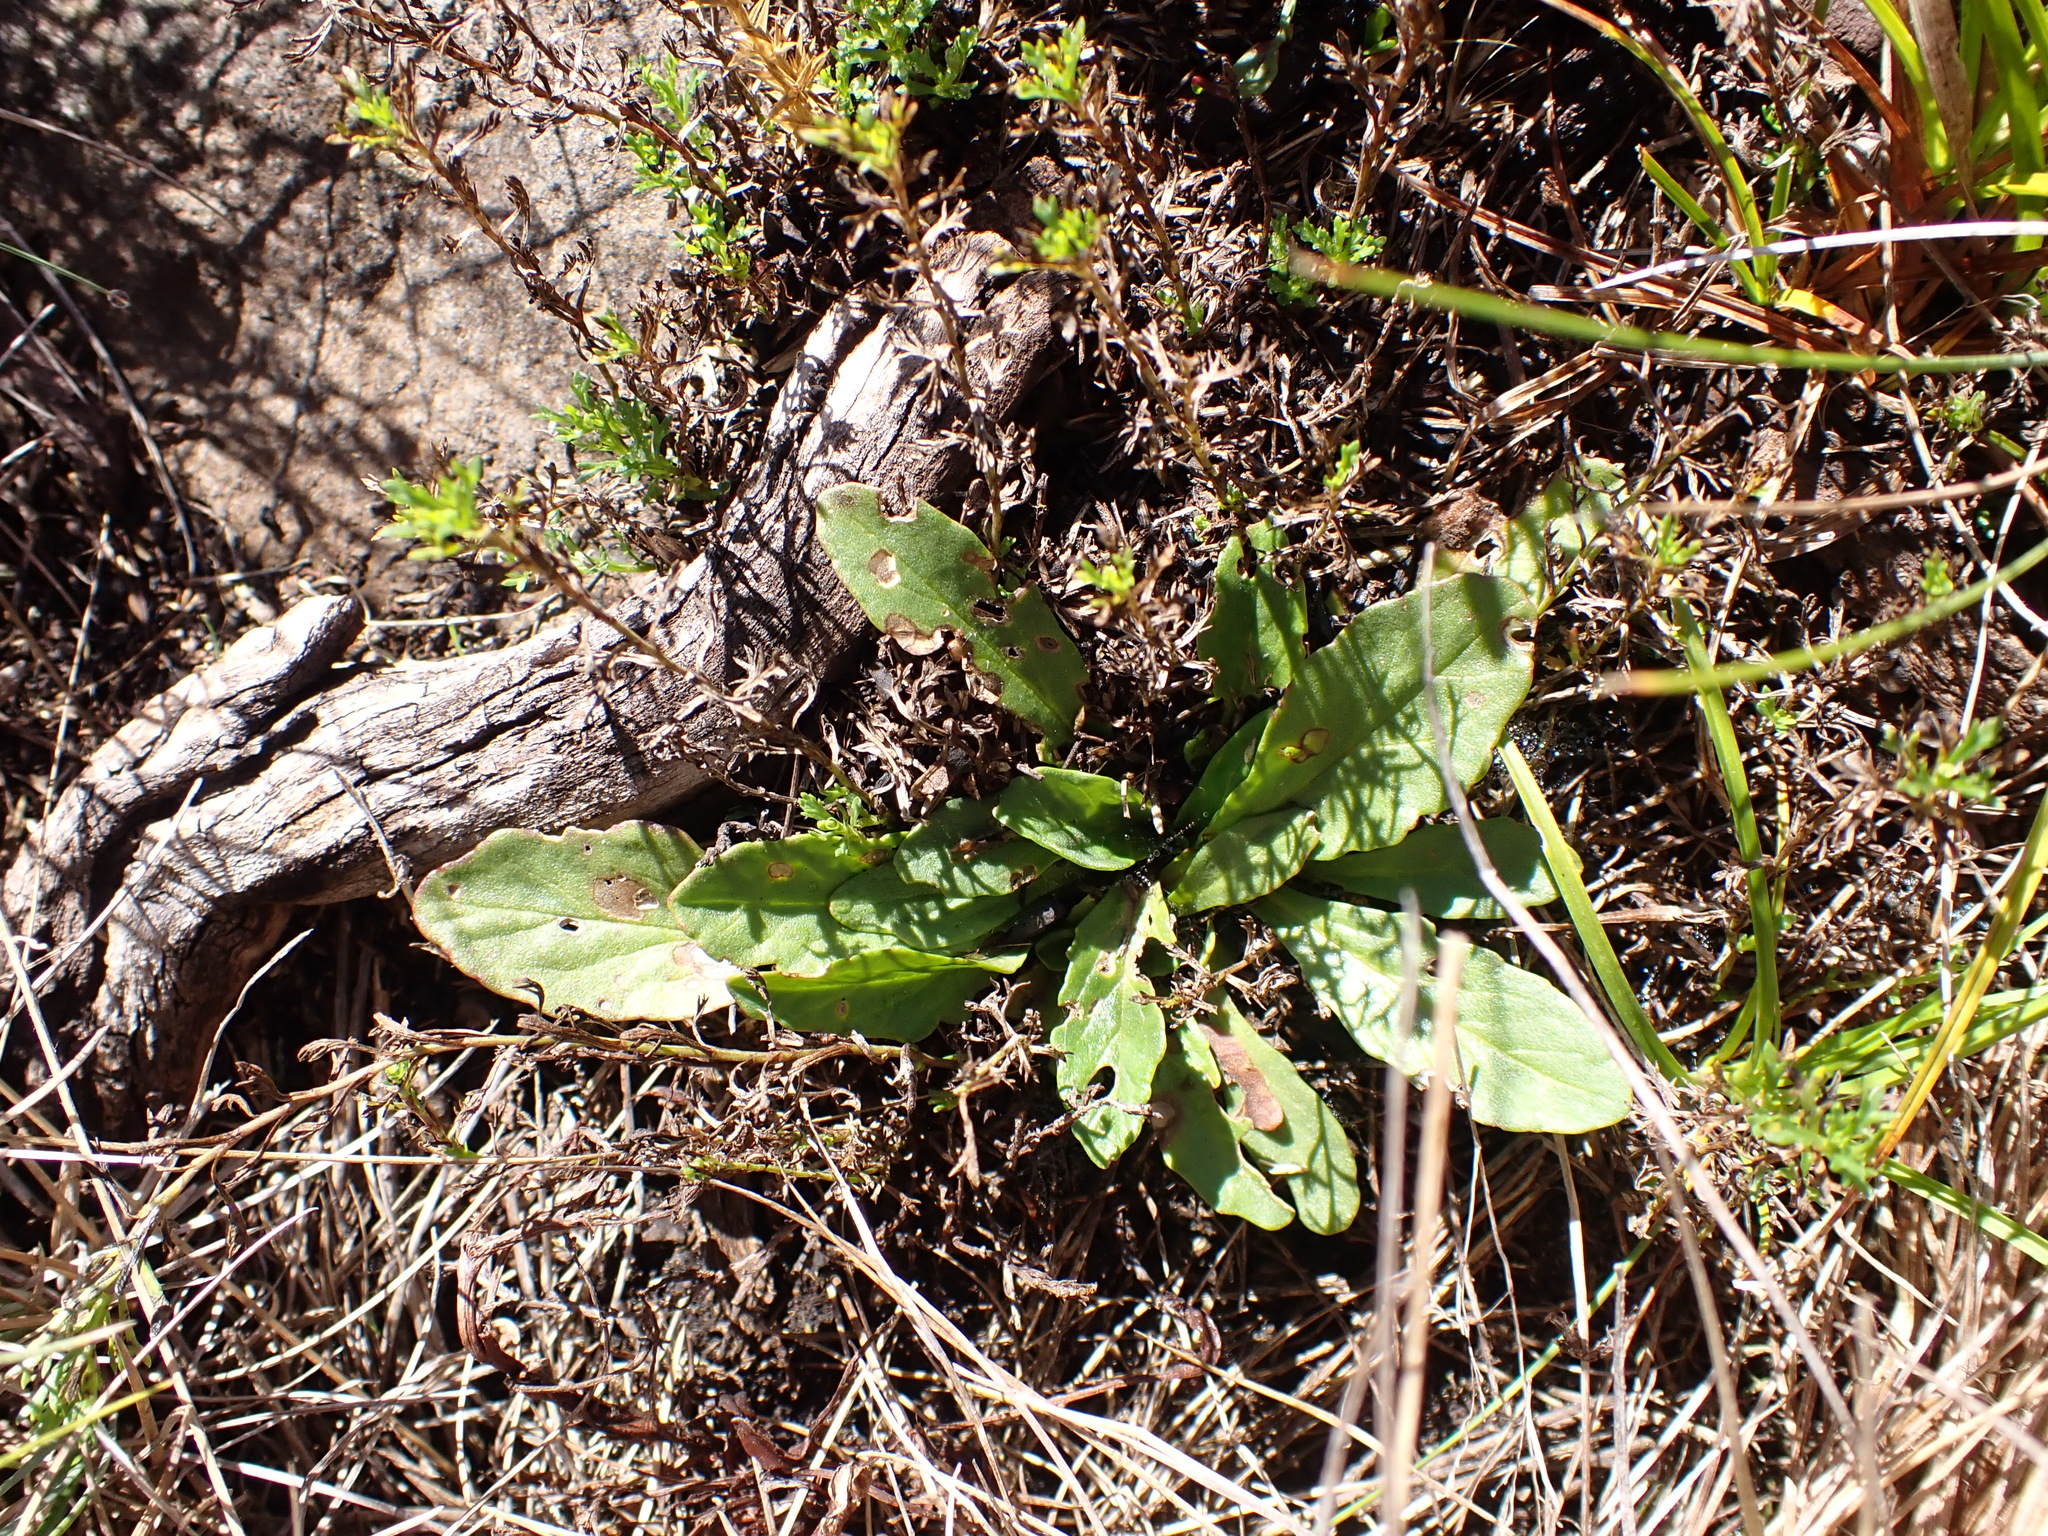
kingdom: Plantae
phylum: Tracheophyta
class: Magnoliopsida
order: Lamiales
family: Lamiaceae
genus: Ajuga
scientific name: Ajuga australis
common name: Australian bugle
